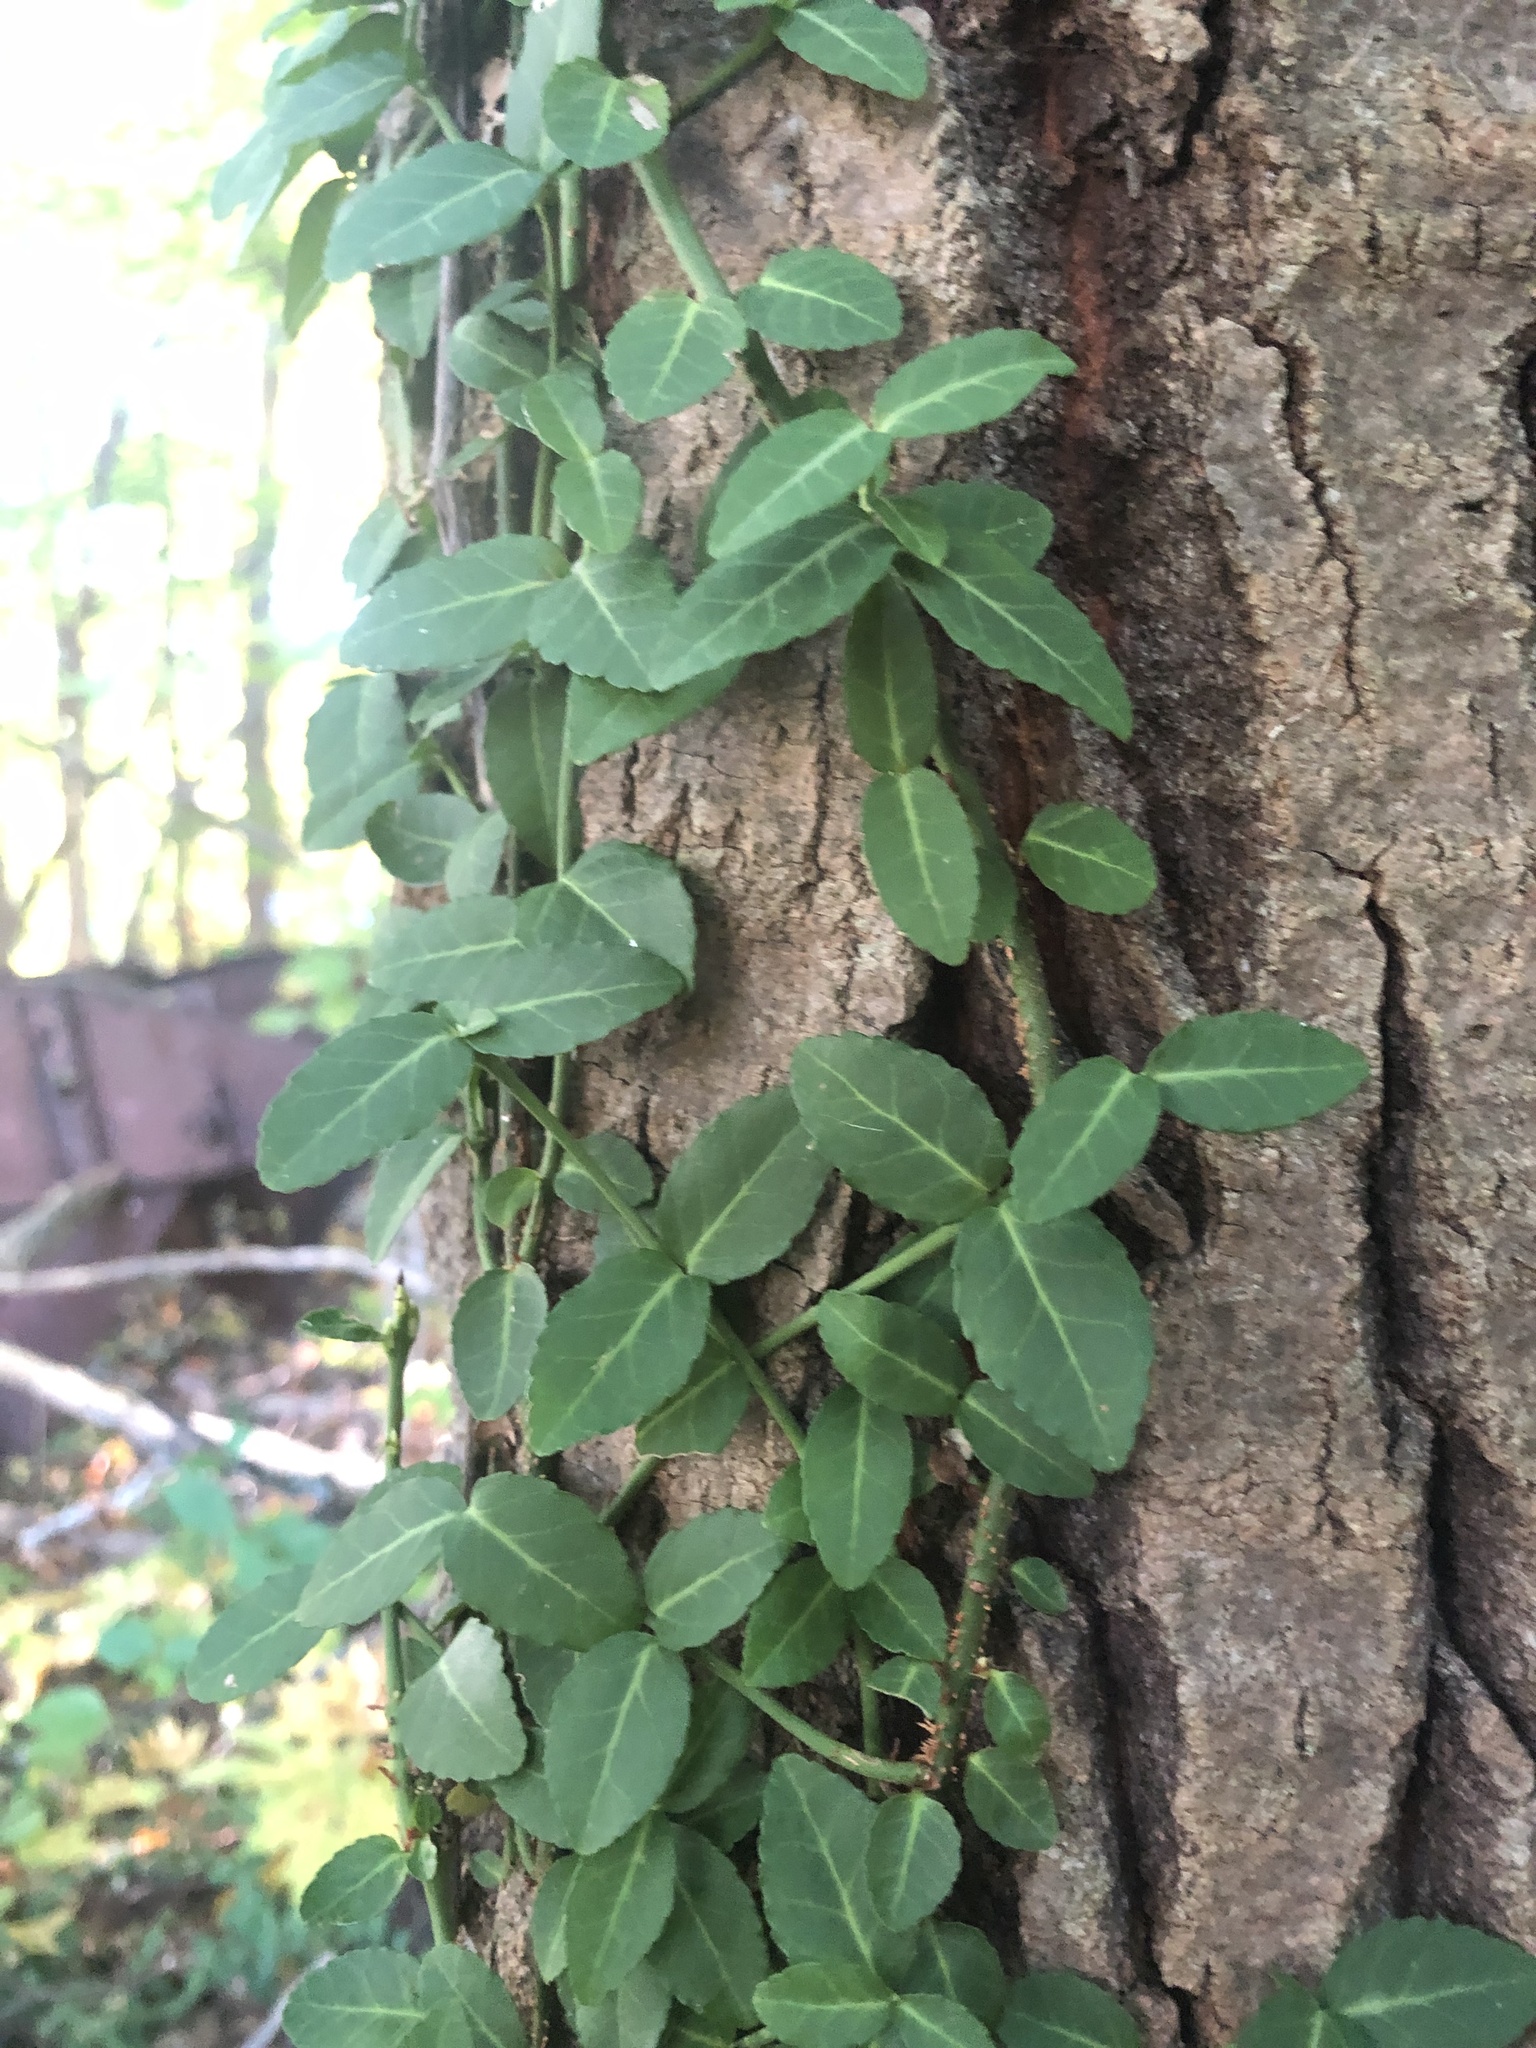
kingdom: Plantae
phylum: Tracheophyta
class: Magnoliopsida
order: Celastrales
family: Celastraceae
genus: Euonymus
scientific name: Euonymus fortunei
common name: Climbing euonymus
